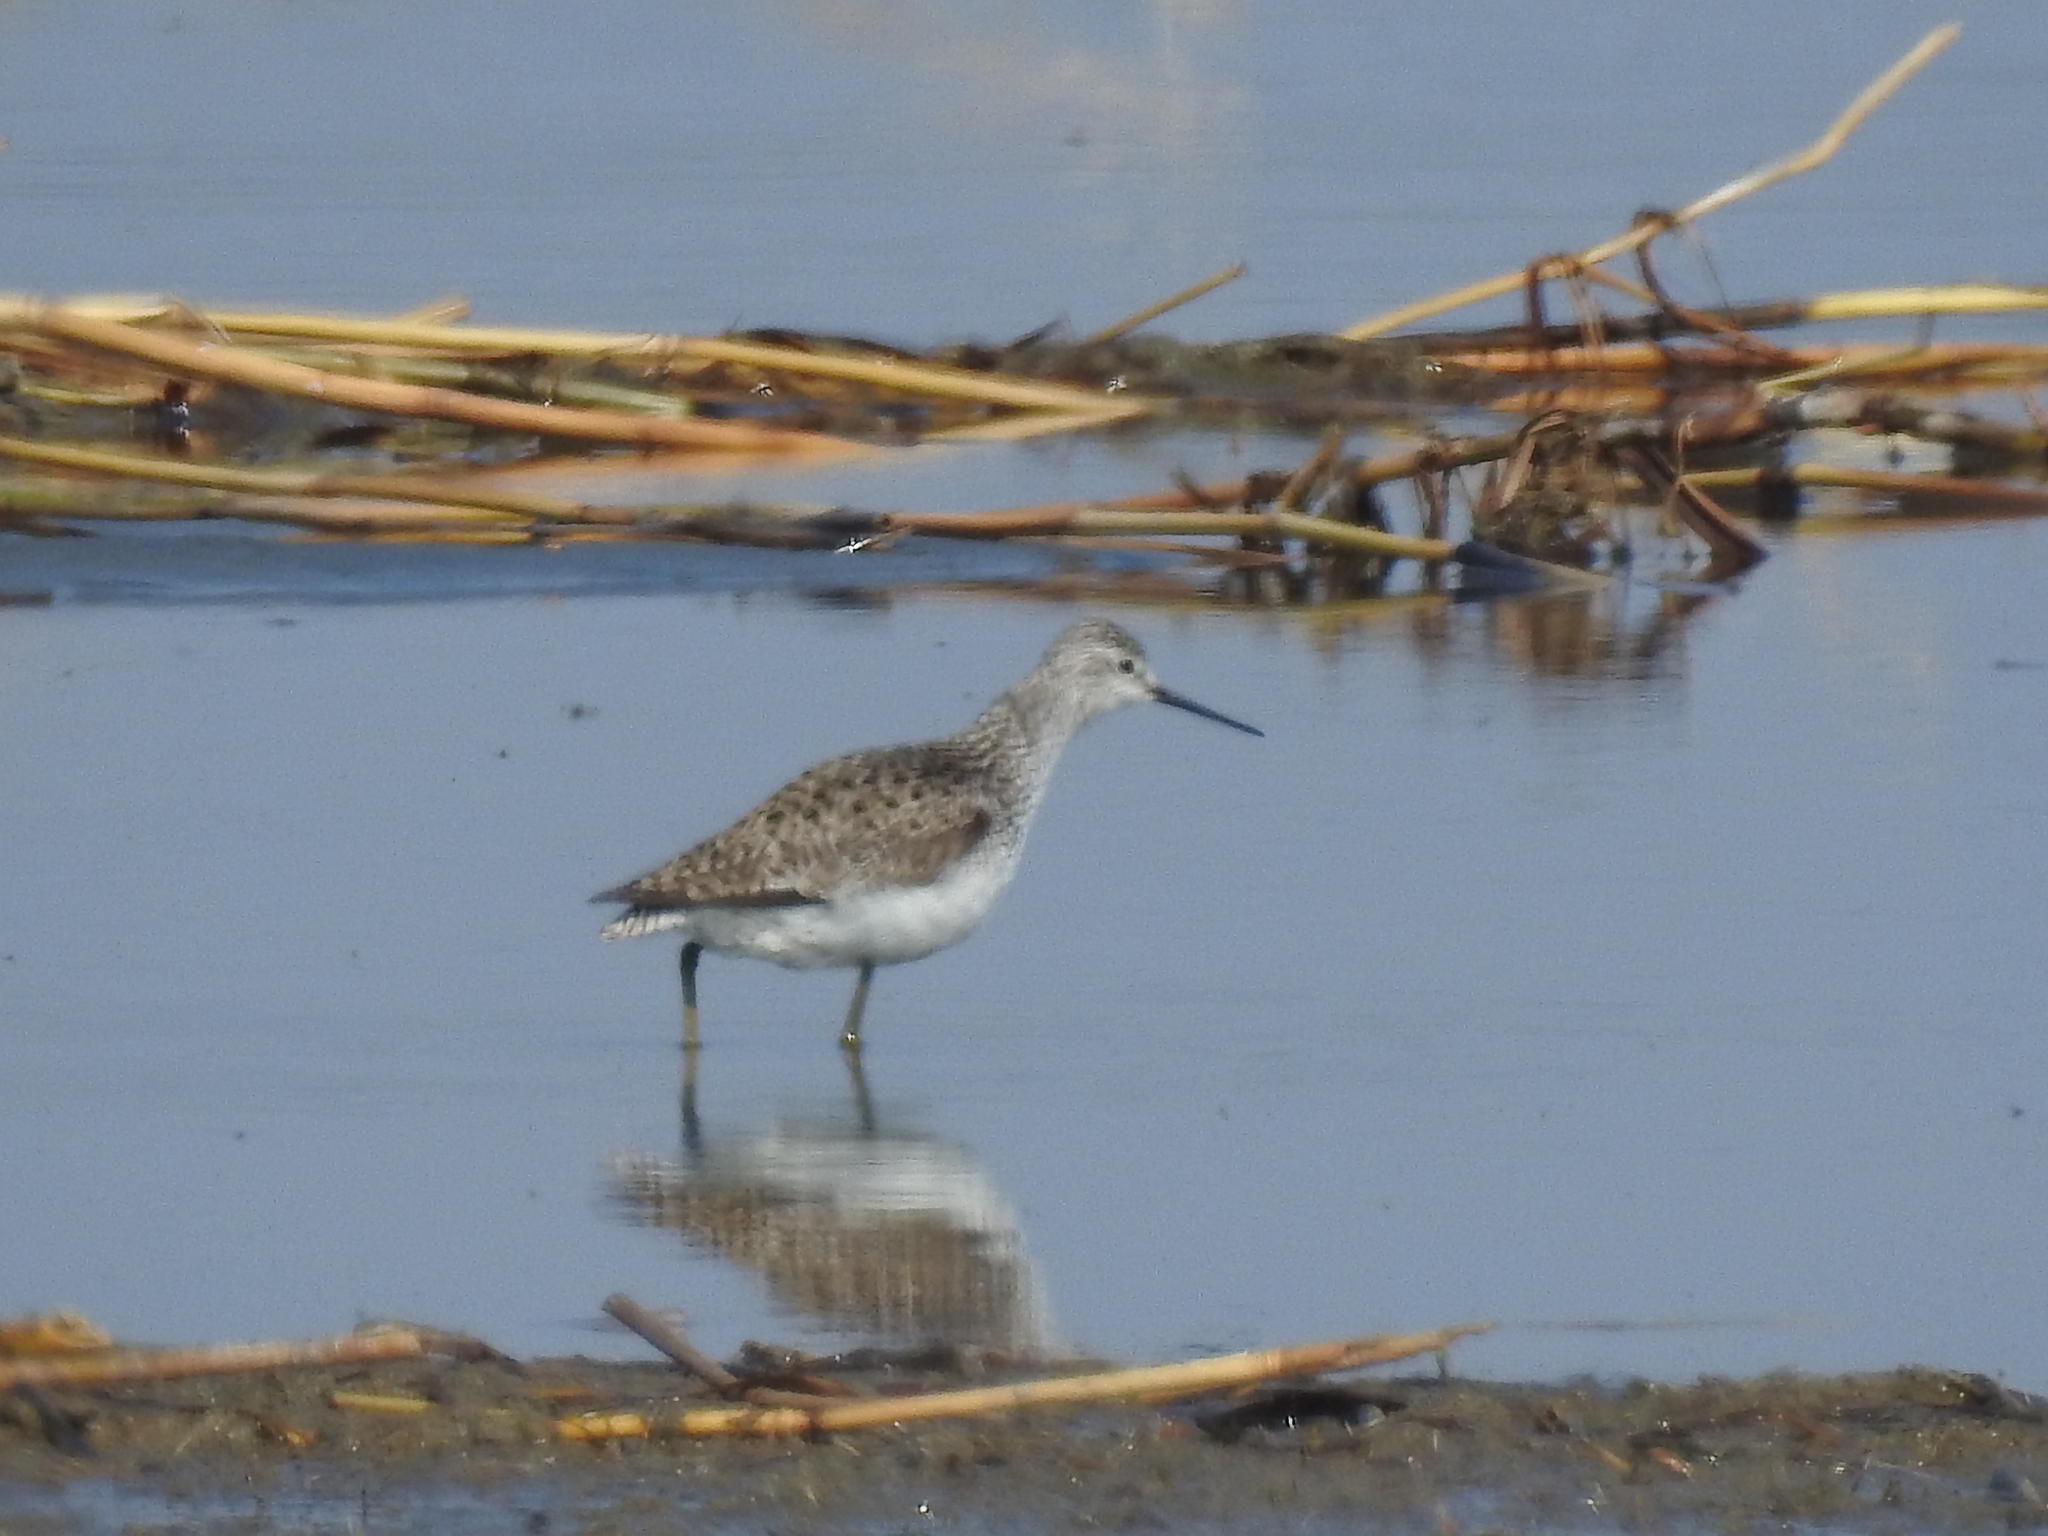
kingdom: Animalia
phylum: Chordata
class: Aves
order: Charadriiformes
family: Scolopacidae
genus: Tringa
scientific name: Tringa stagnatilis
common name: Marsh sandpiper
